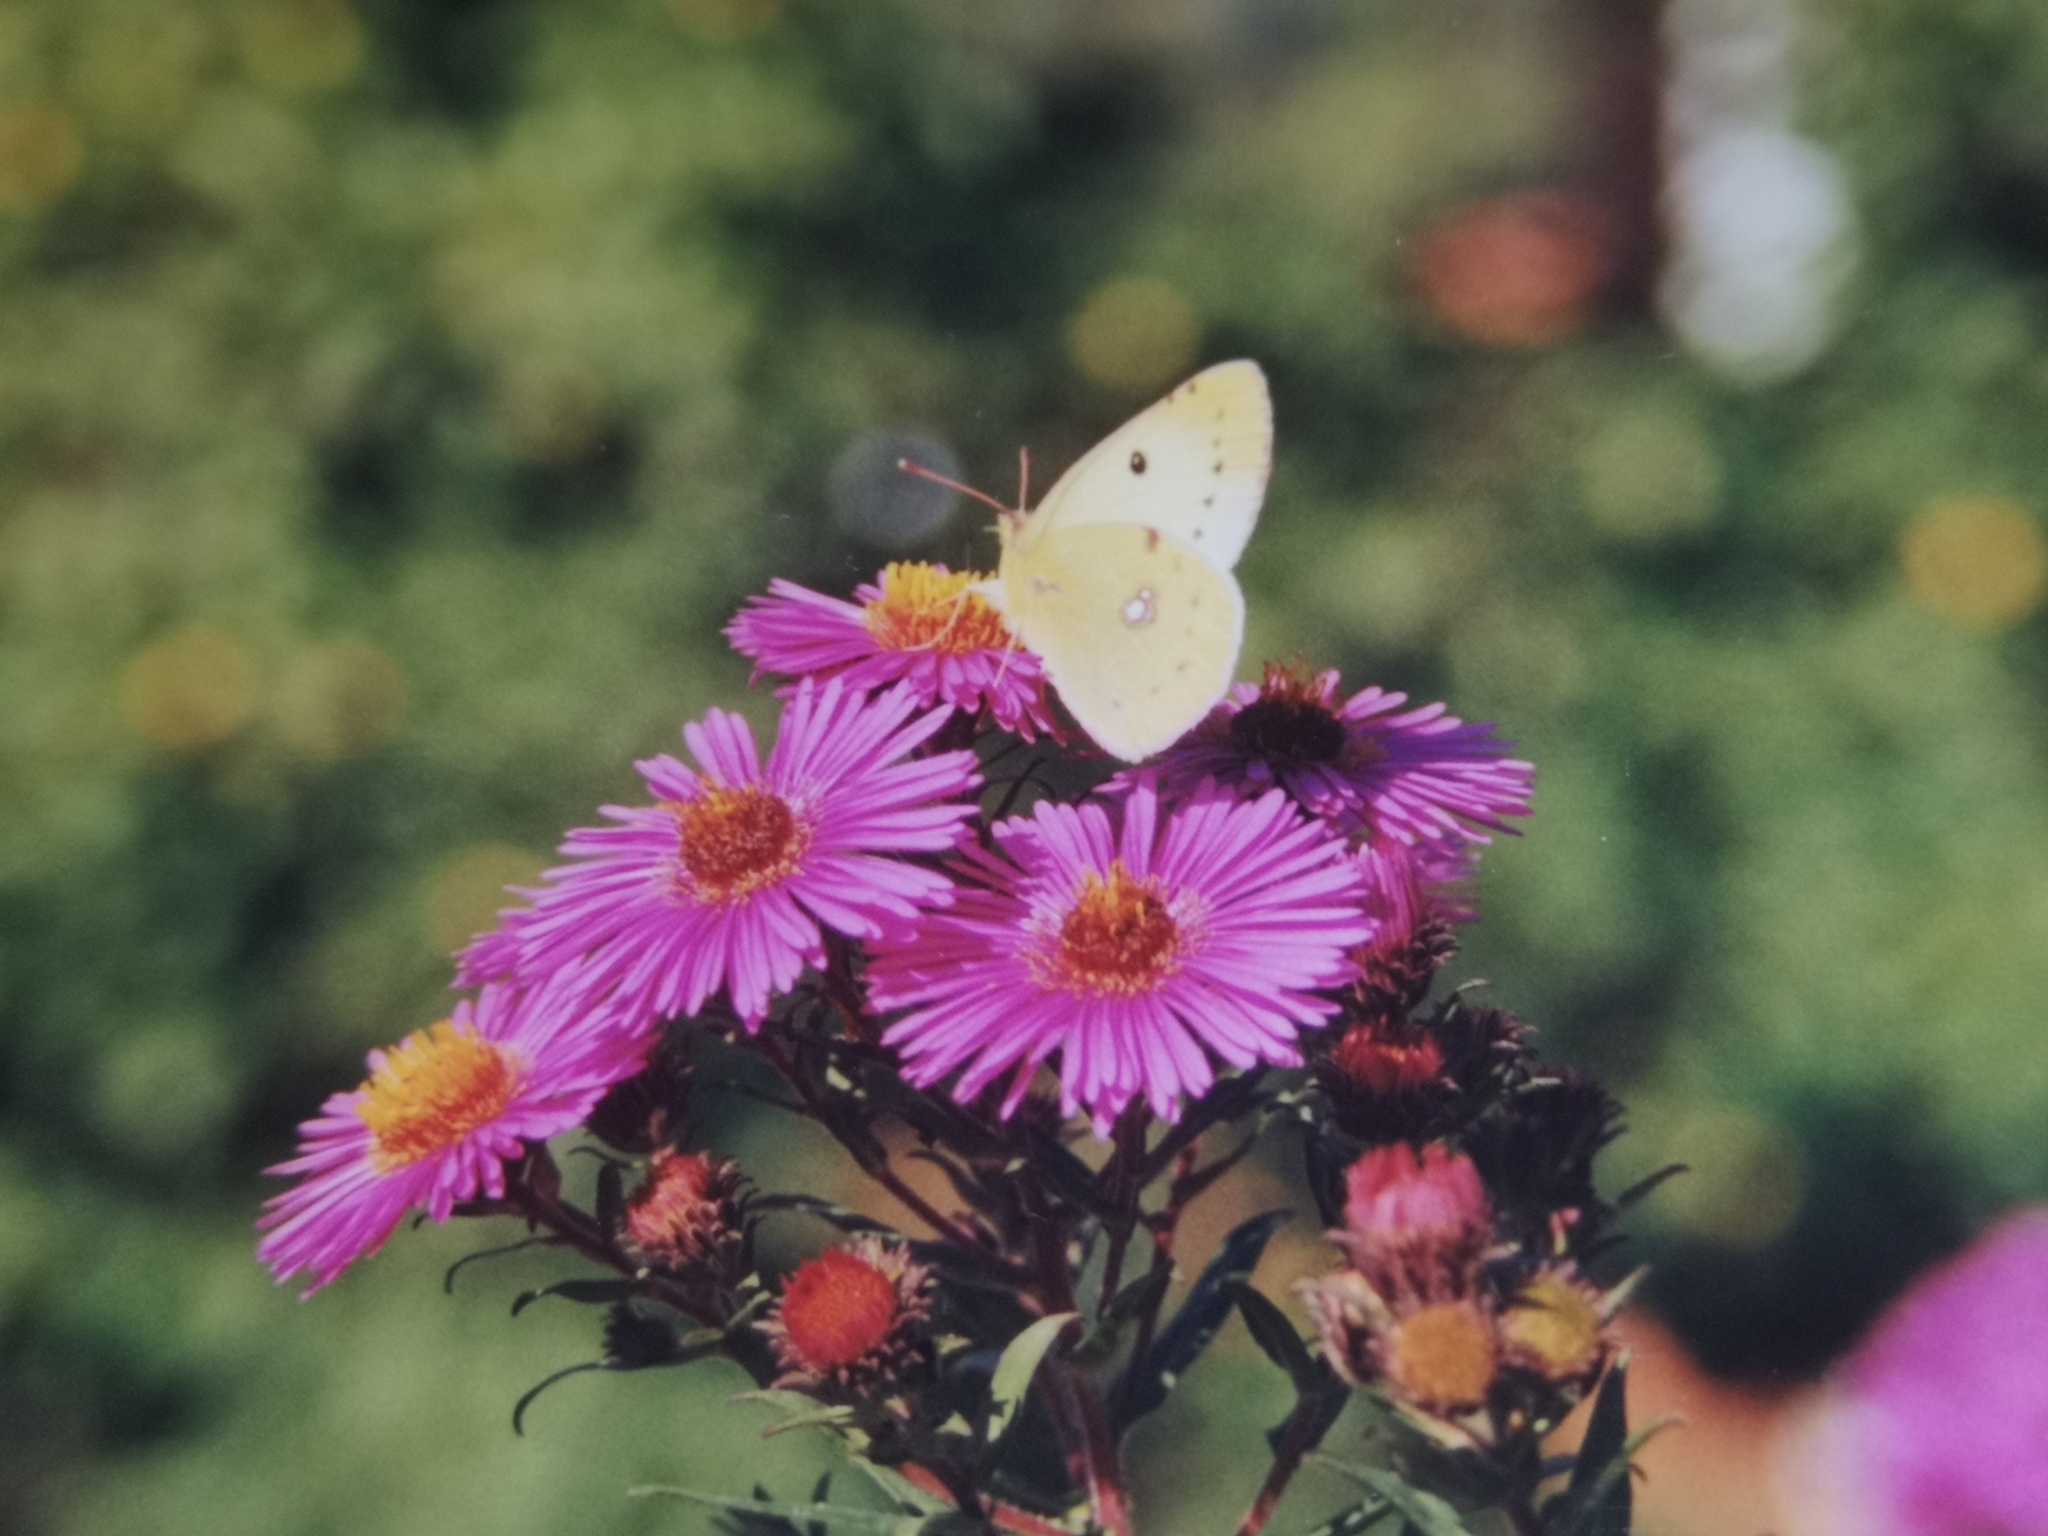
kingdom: Animalia
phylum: Arthropoda
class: Insecta
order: Lepidoptera
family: Pieridae
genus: Colias
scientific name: Colias
